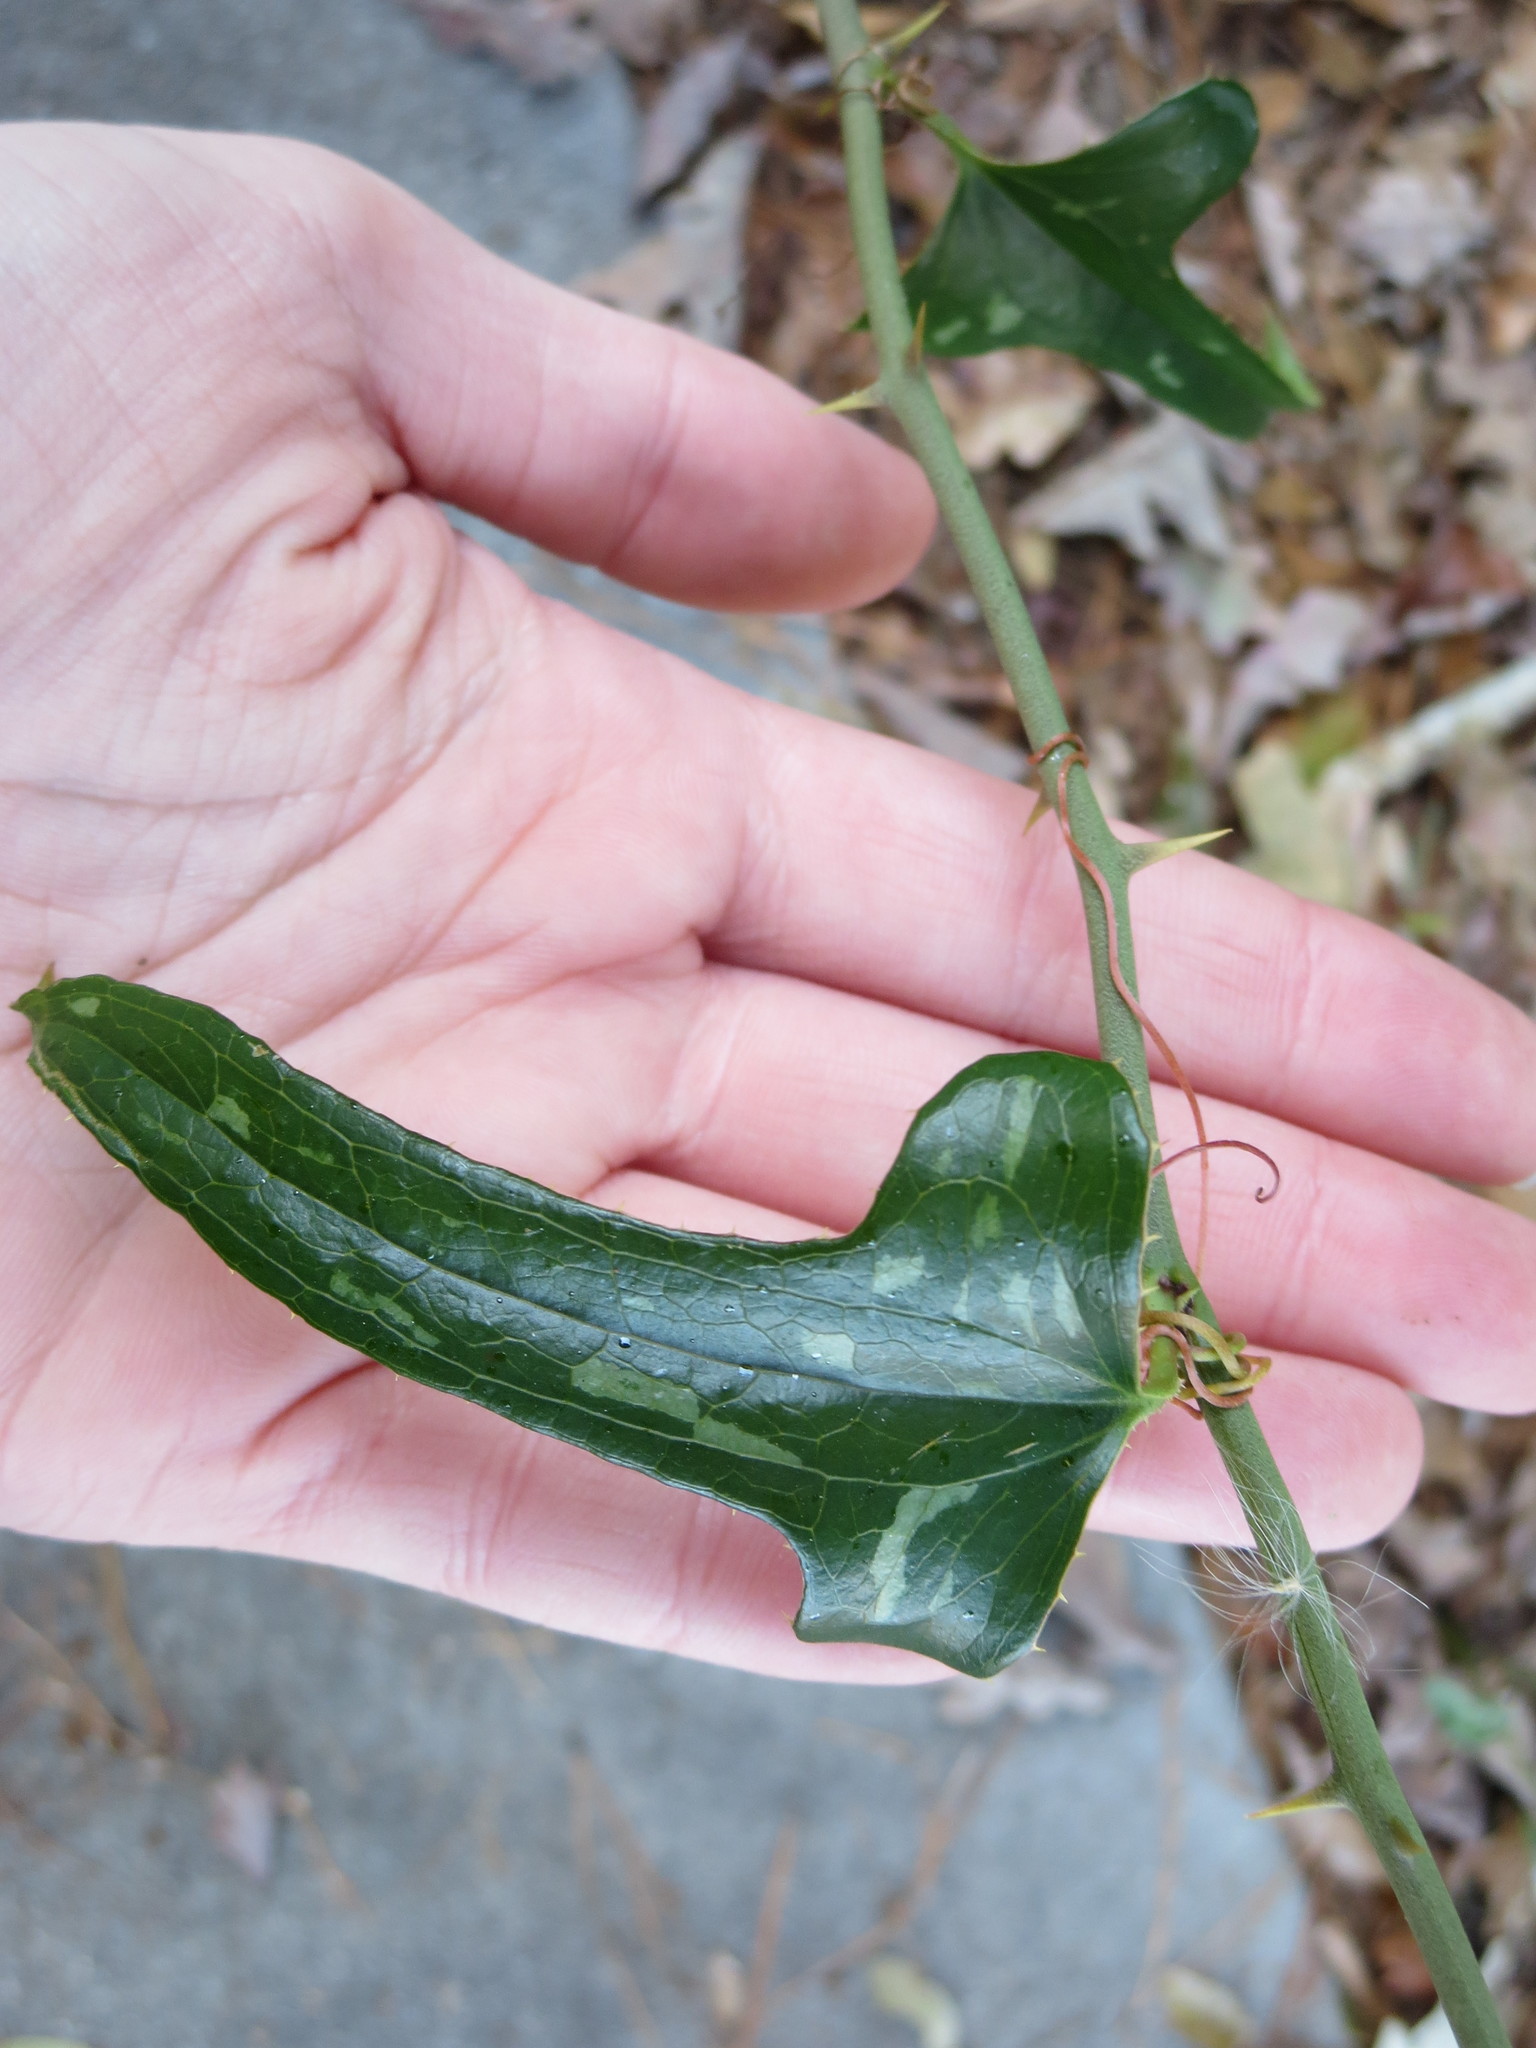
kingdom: Plantae
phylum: Tracheophyta
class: Liliopsida
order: Liliales
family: Smilacaceae
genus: Smilax
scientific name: Smilax bona-nox
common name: Catbrier
